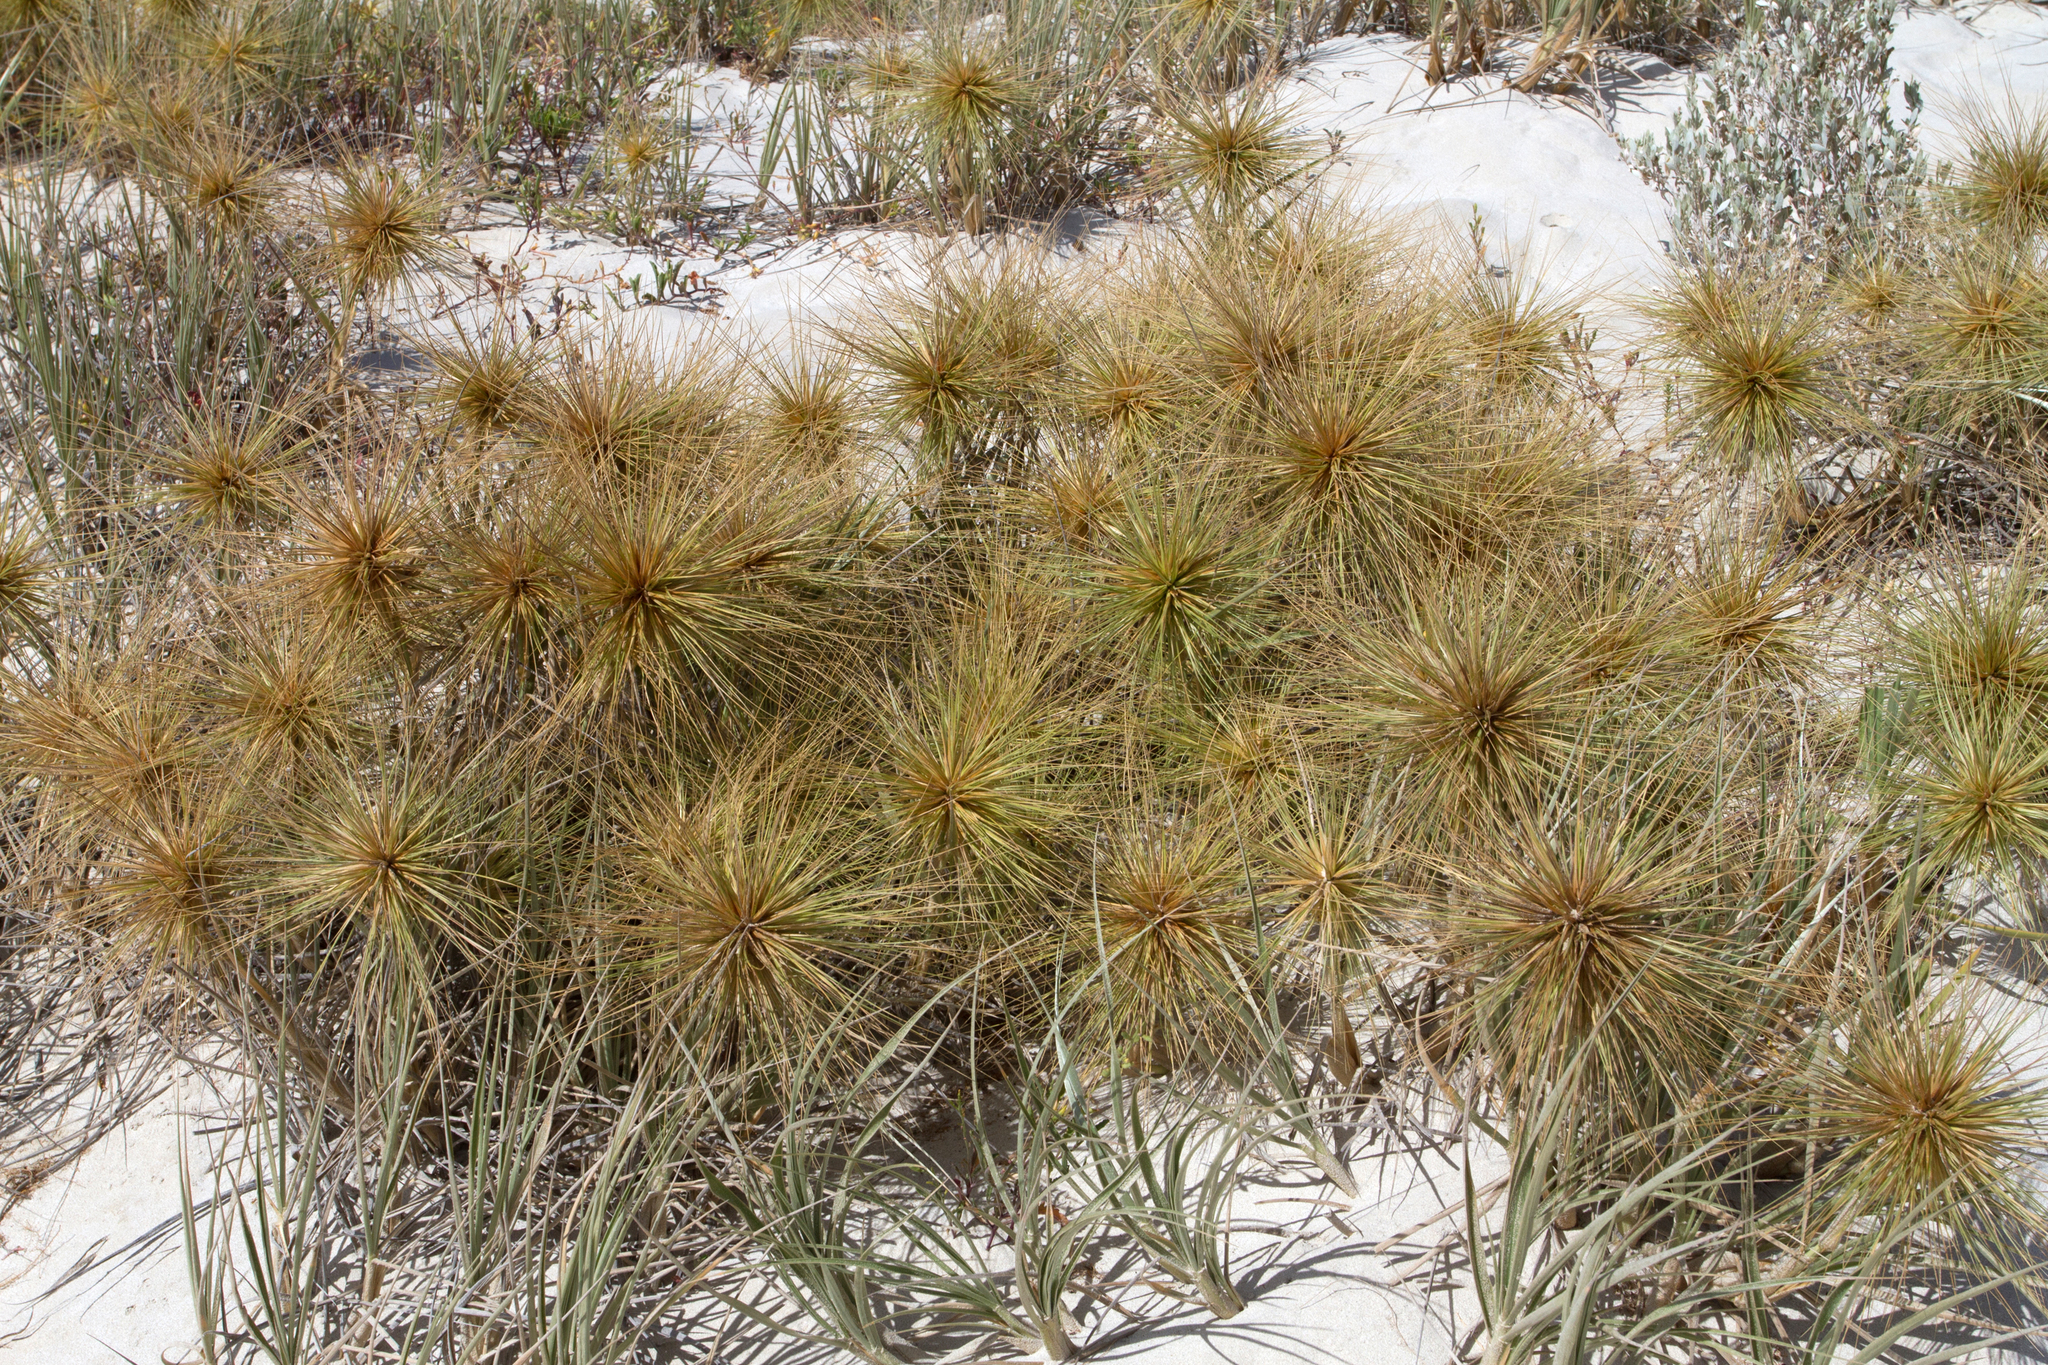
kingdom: Plantae
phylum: Tracheophyta
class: Liliopsida
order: Poales
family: Poaceae
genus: Spinifex
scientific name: Spinifex hirsutus
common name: Hairy spinifex
